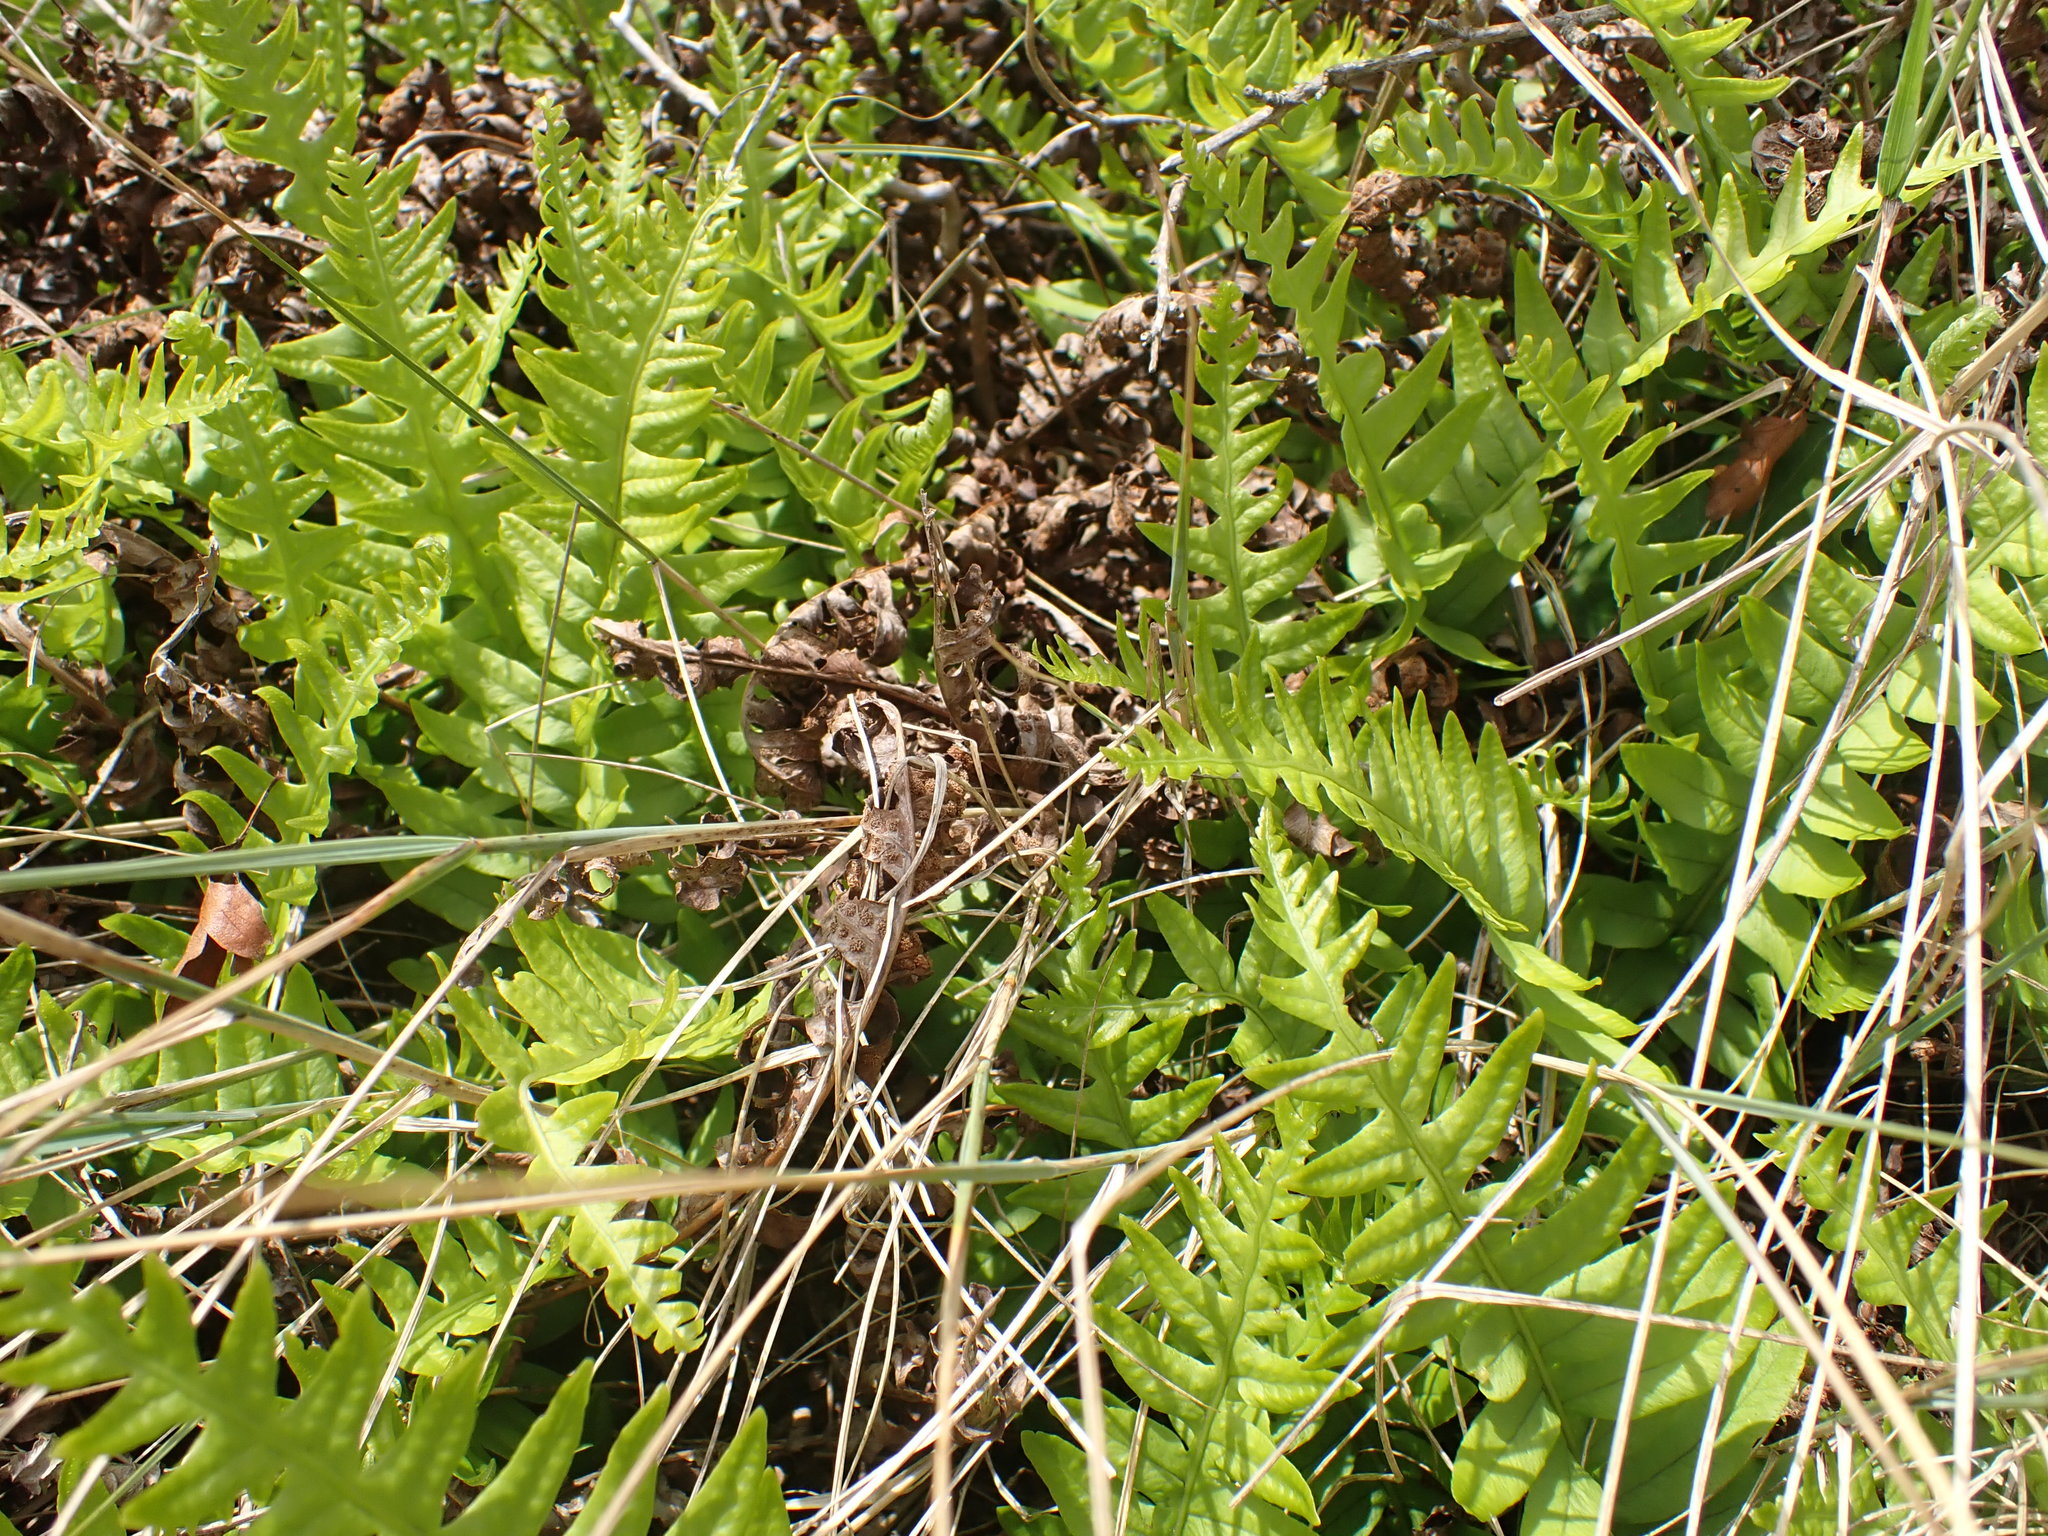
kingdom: Plantae
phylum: Tracheophyta
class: Polypodiopsida
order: Polypodiales
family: Polypodiaceae
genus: Polypodium
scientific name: Polypodium interjectum
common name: Intermediate polypody
